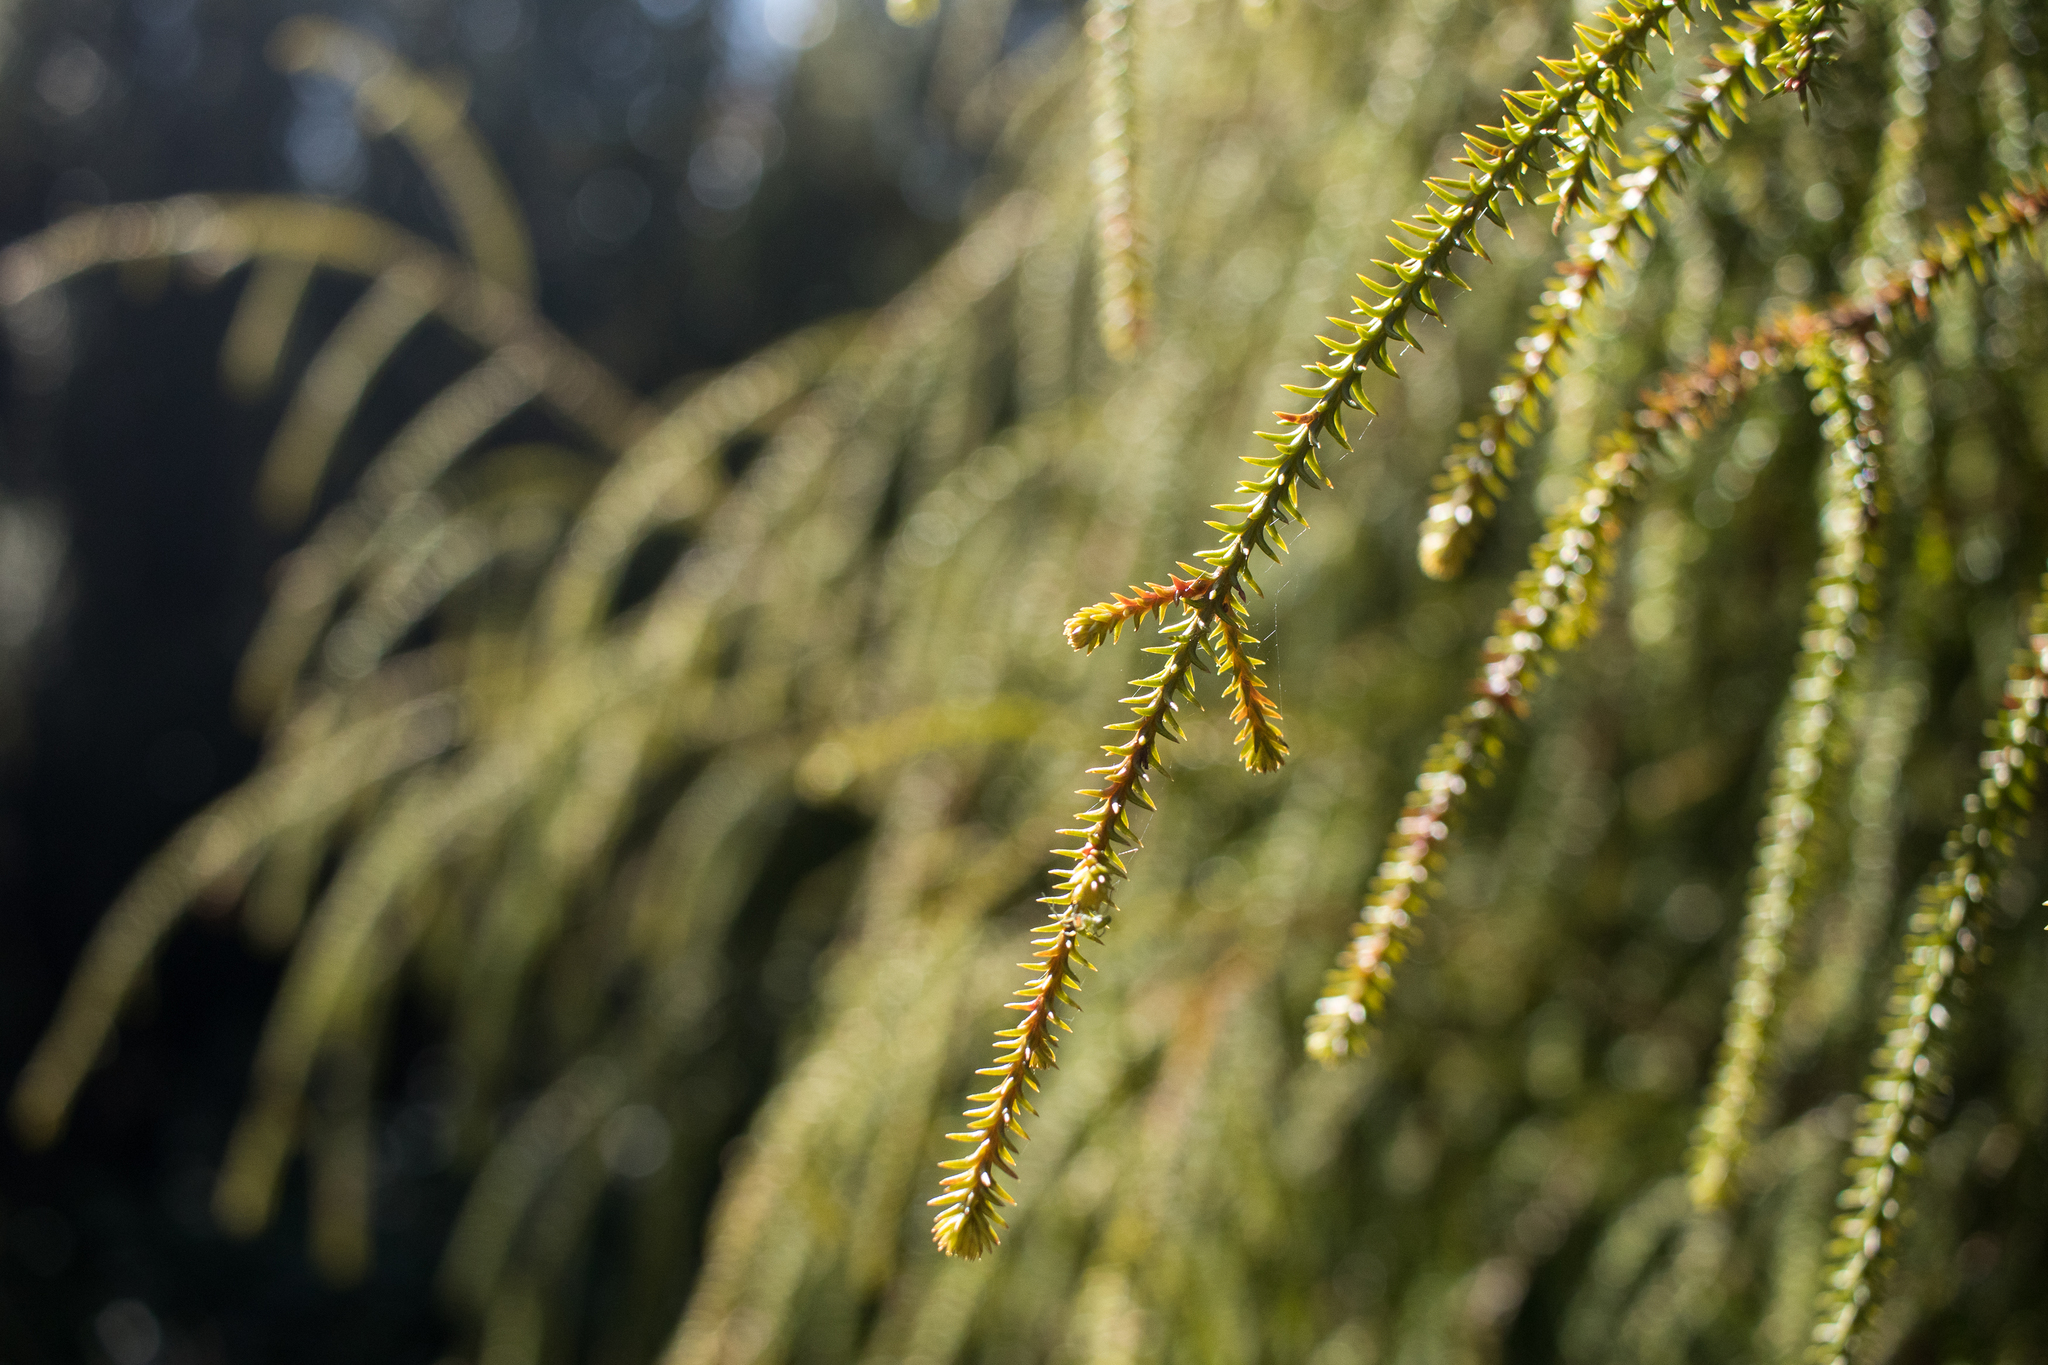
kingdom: Plantae
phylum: Tracheophyta
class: Pinopsida
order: Pinales
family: Podocarpaceae
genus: Dacrydium
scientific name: Dacrydium cupressinum
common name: Red pine
